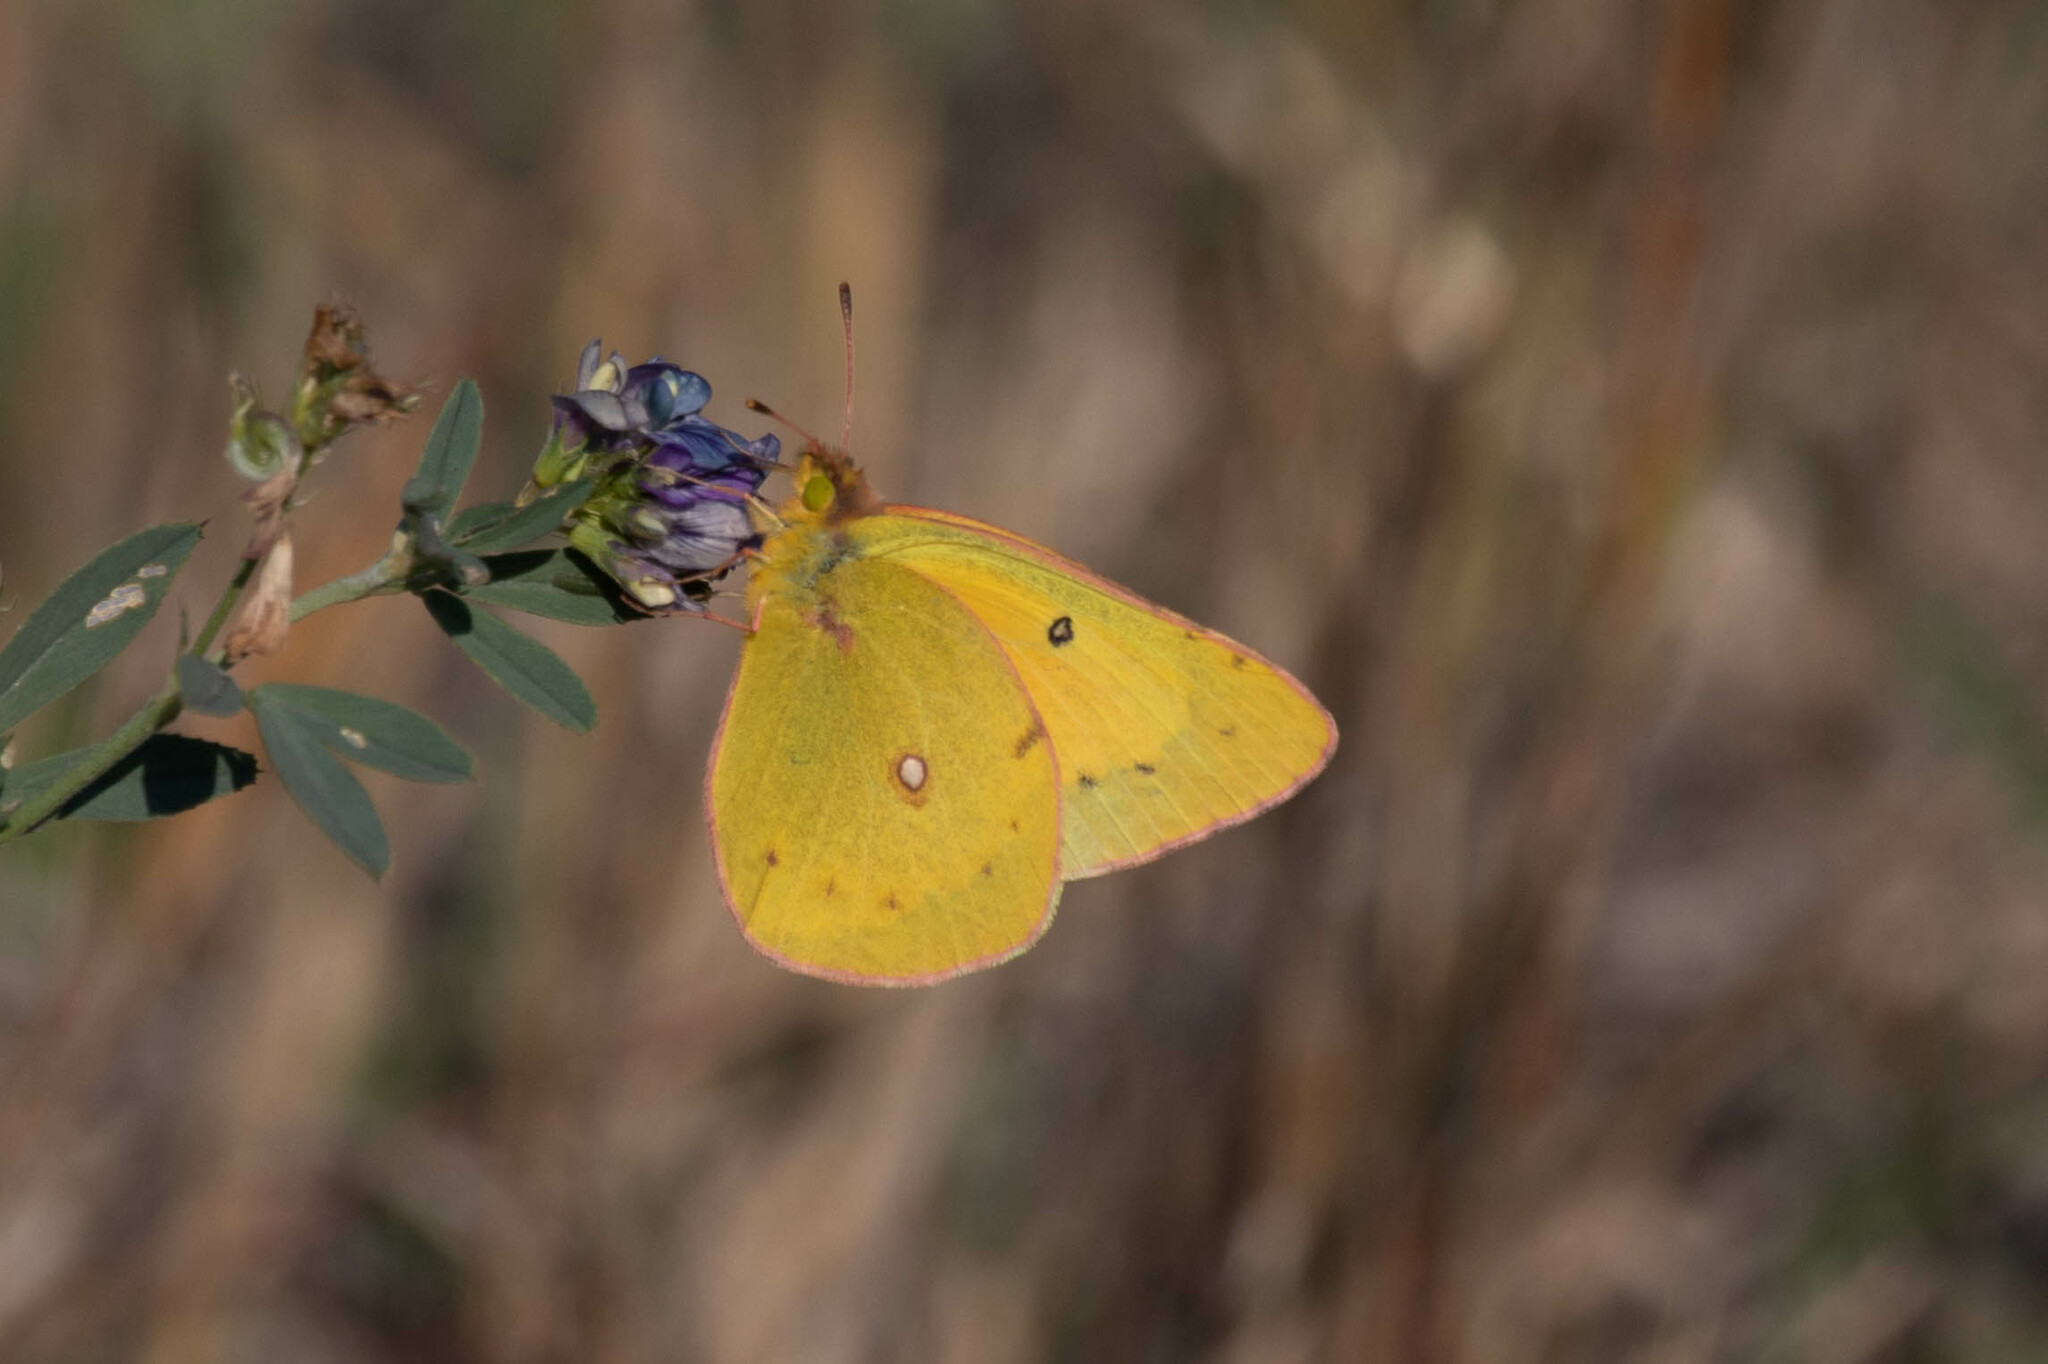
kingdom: Animalia
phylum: Arthropoda
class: Insecta
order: Lepidoptera
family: Pieridae
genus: Colias
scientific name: Colias eurytheme
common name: Alfalfa butterfly
